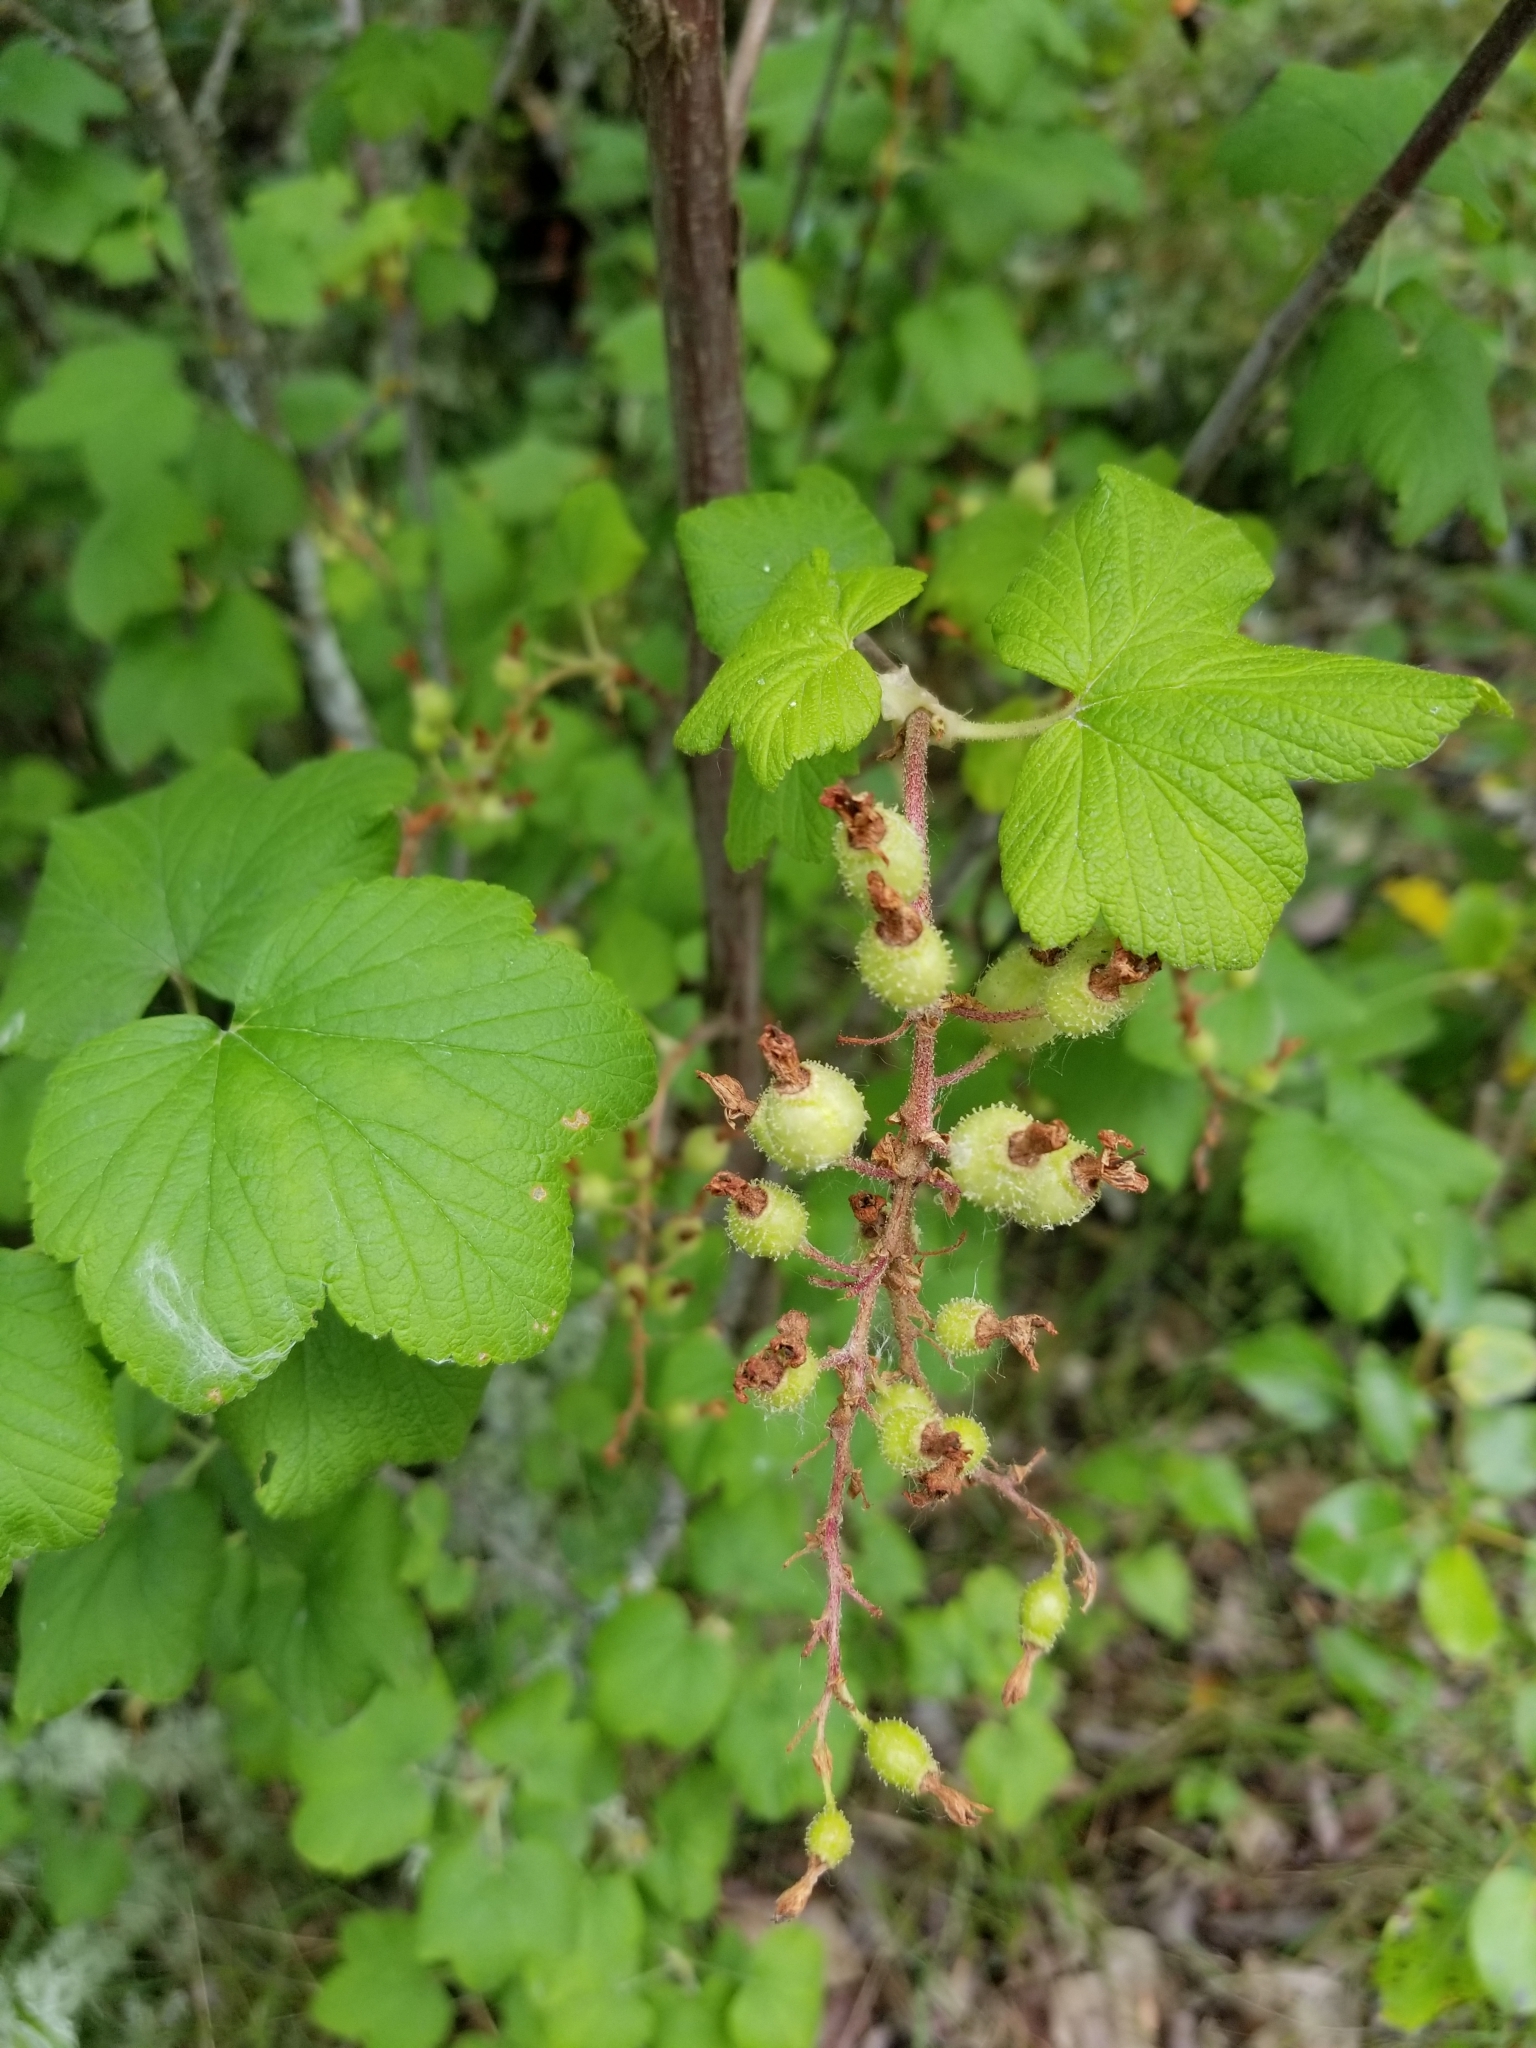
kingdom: Plantae
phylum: Tracheophyta
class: Magnoliopsida
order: Saxifragales
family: Grossulariaceae
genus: Ribes
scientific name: Ribes sanguineum
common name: Flowering currant
